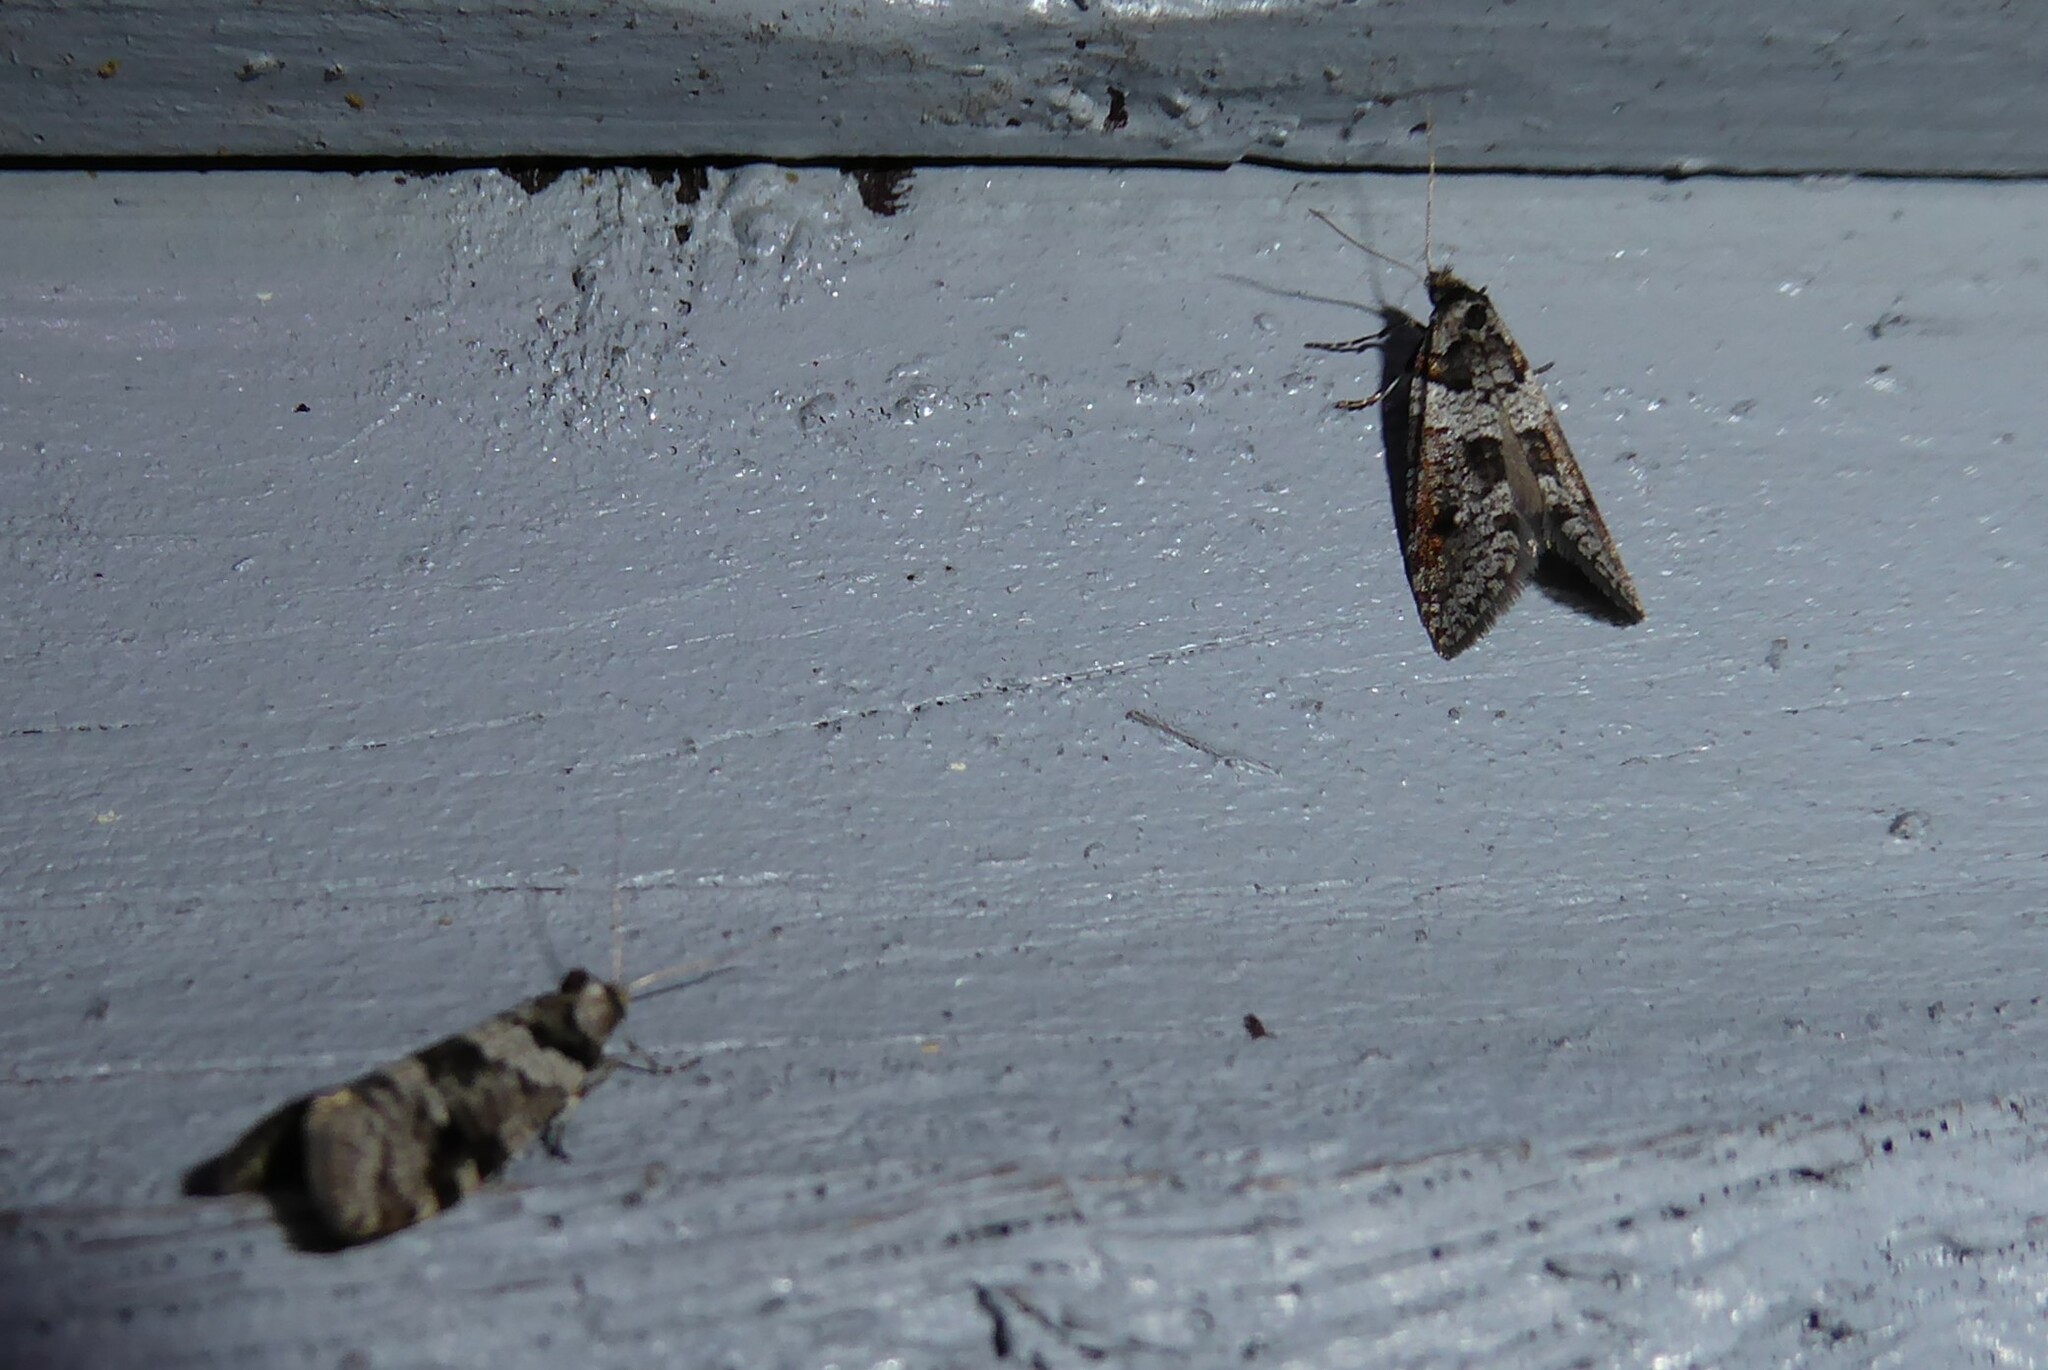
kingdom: Animalia
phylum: Arthropoda
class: Insecta
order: Lepidoptera
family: Psychidae
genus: Lepidoscia
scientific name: Lepidoscia heliochares
